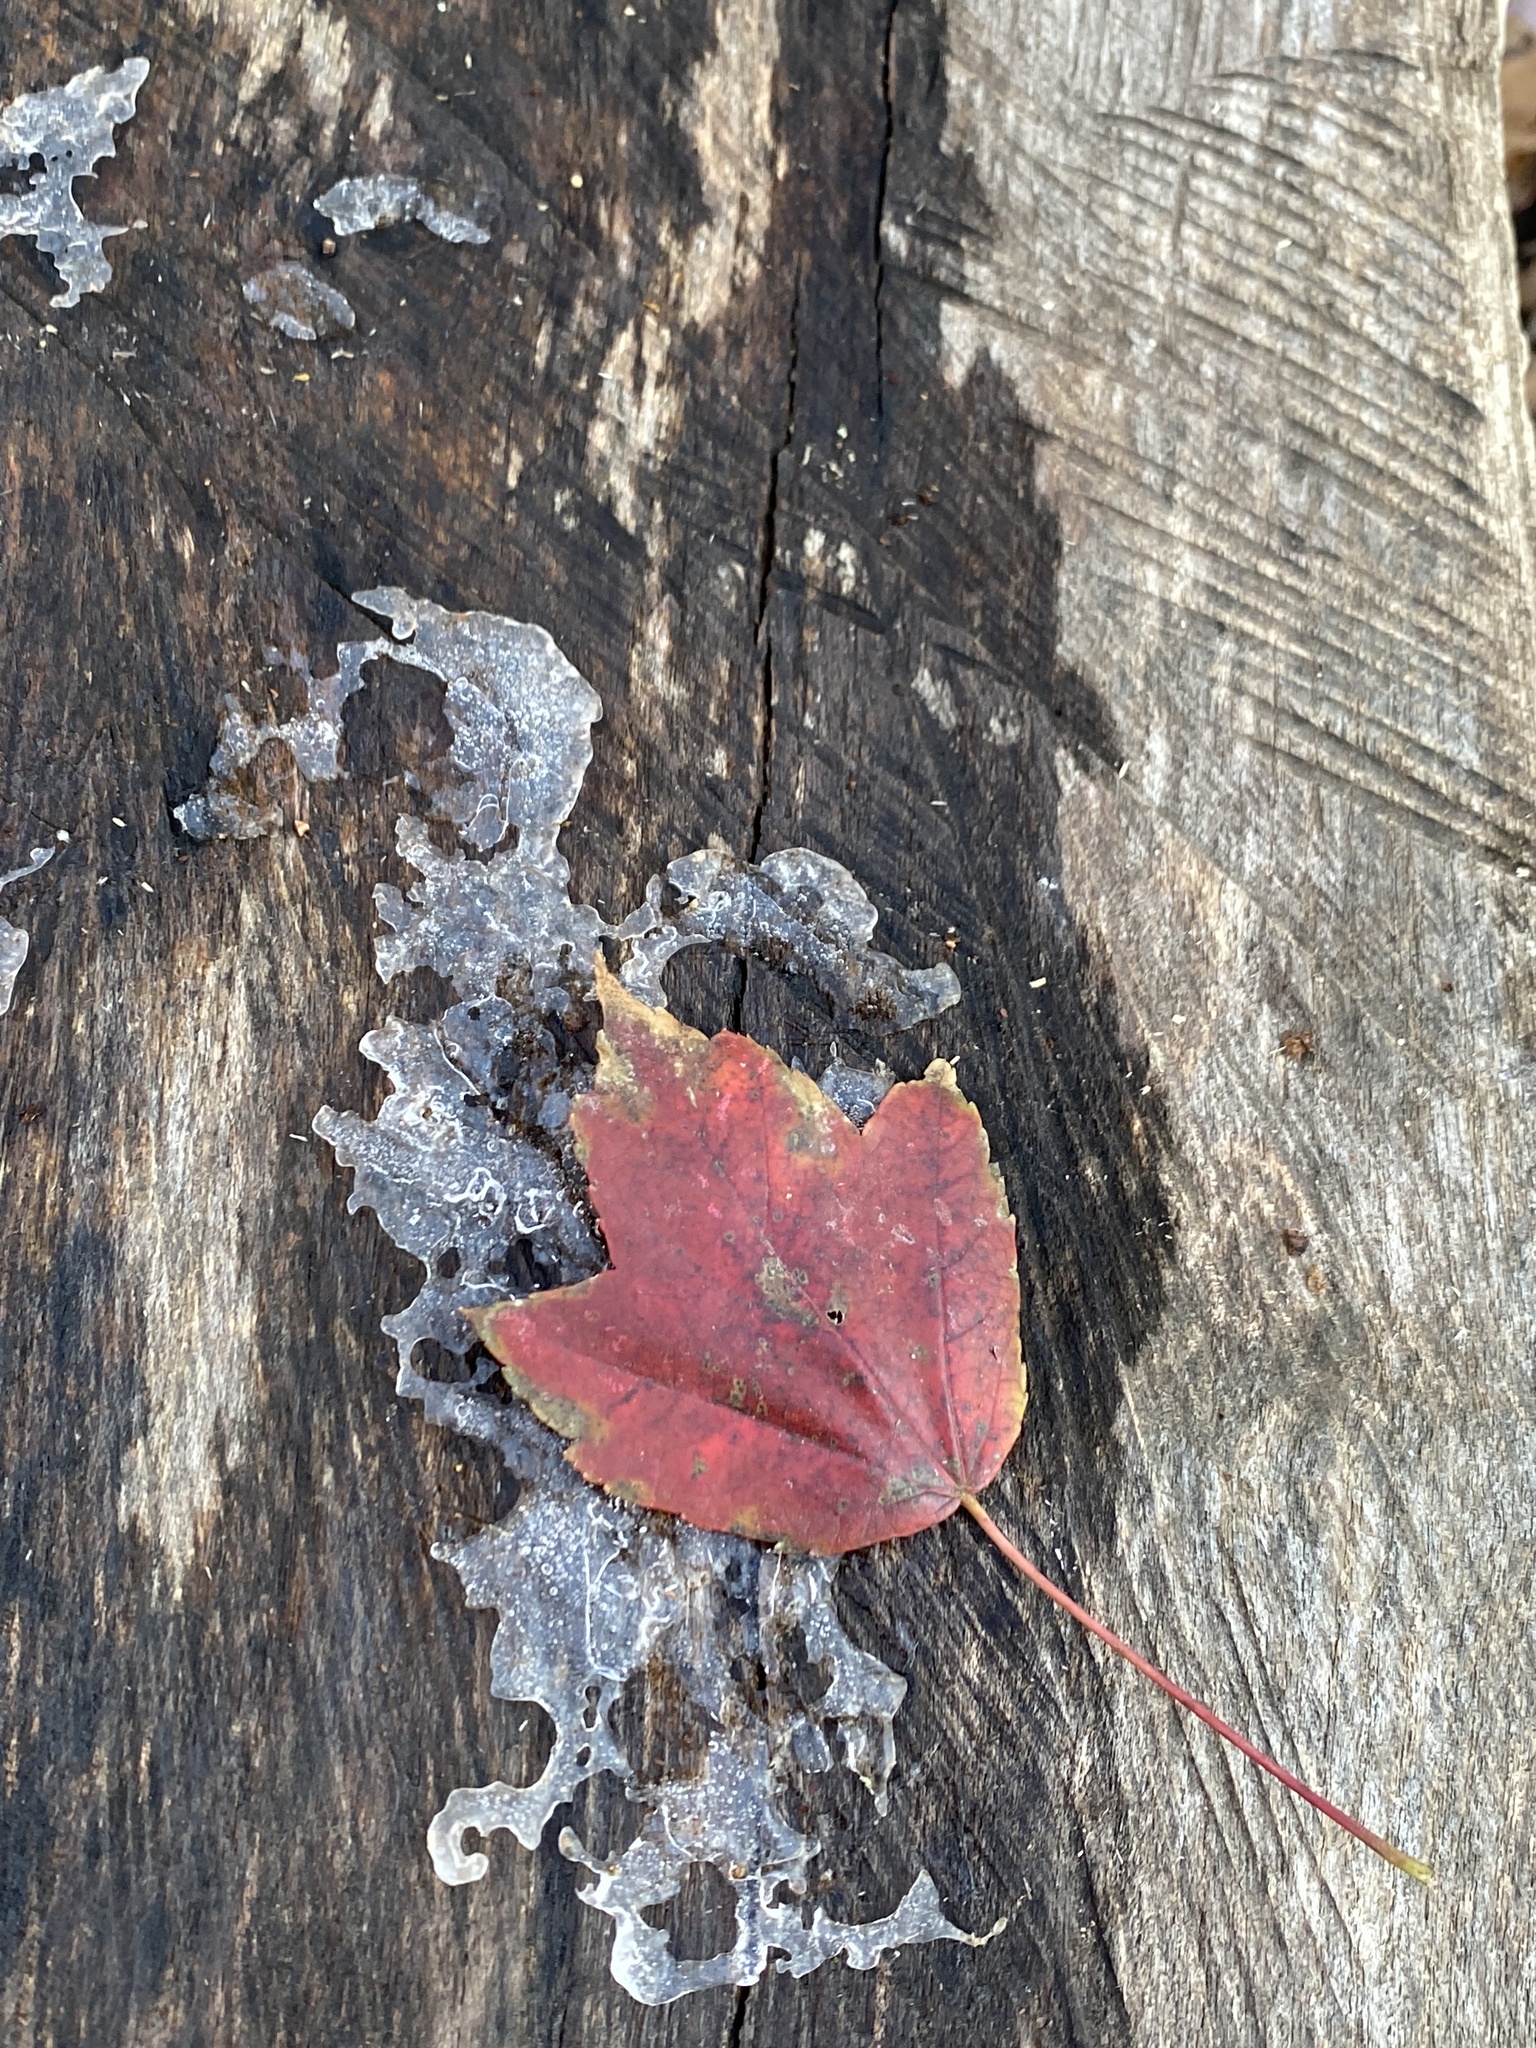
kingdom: Plantae
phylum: Tracheophyta
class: Magnoliopsida
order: Sapindales
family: Sapindaceae
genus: Acer
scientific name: Acer rubrum
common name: Red maple
